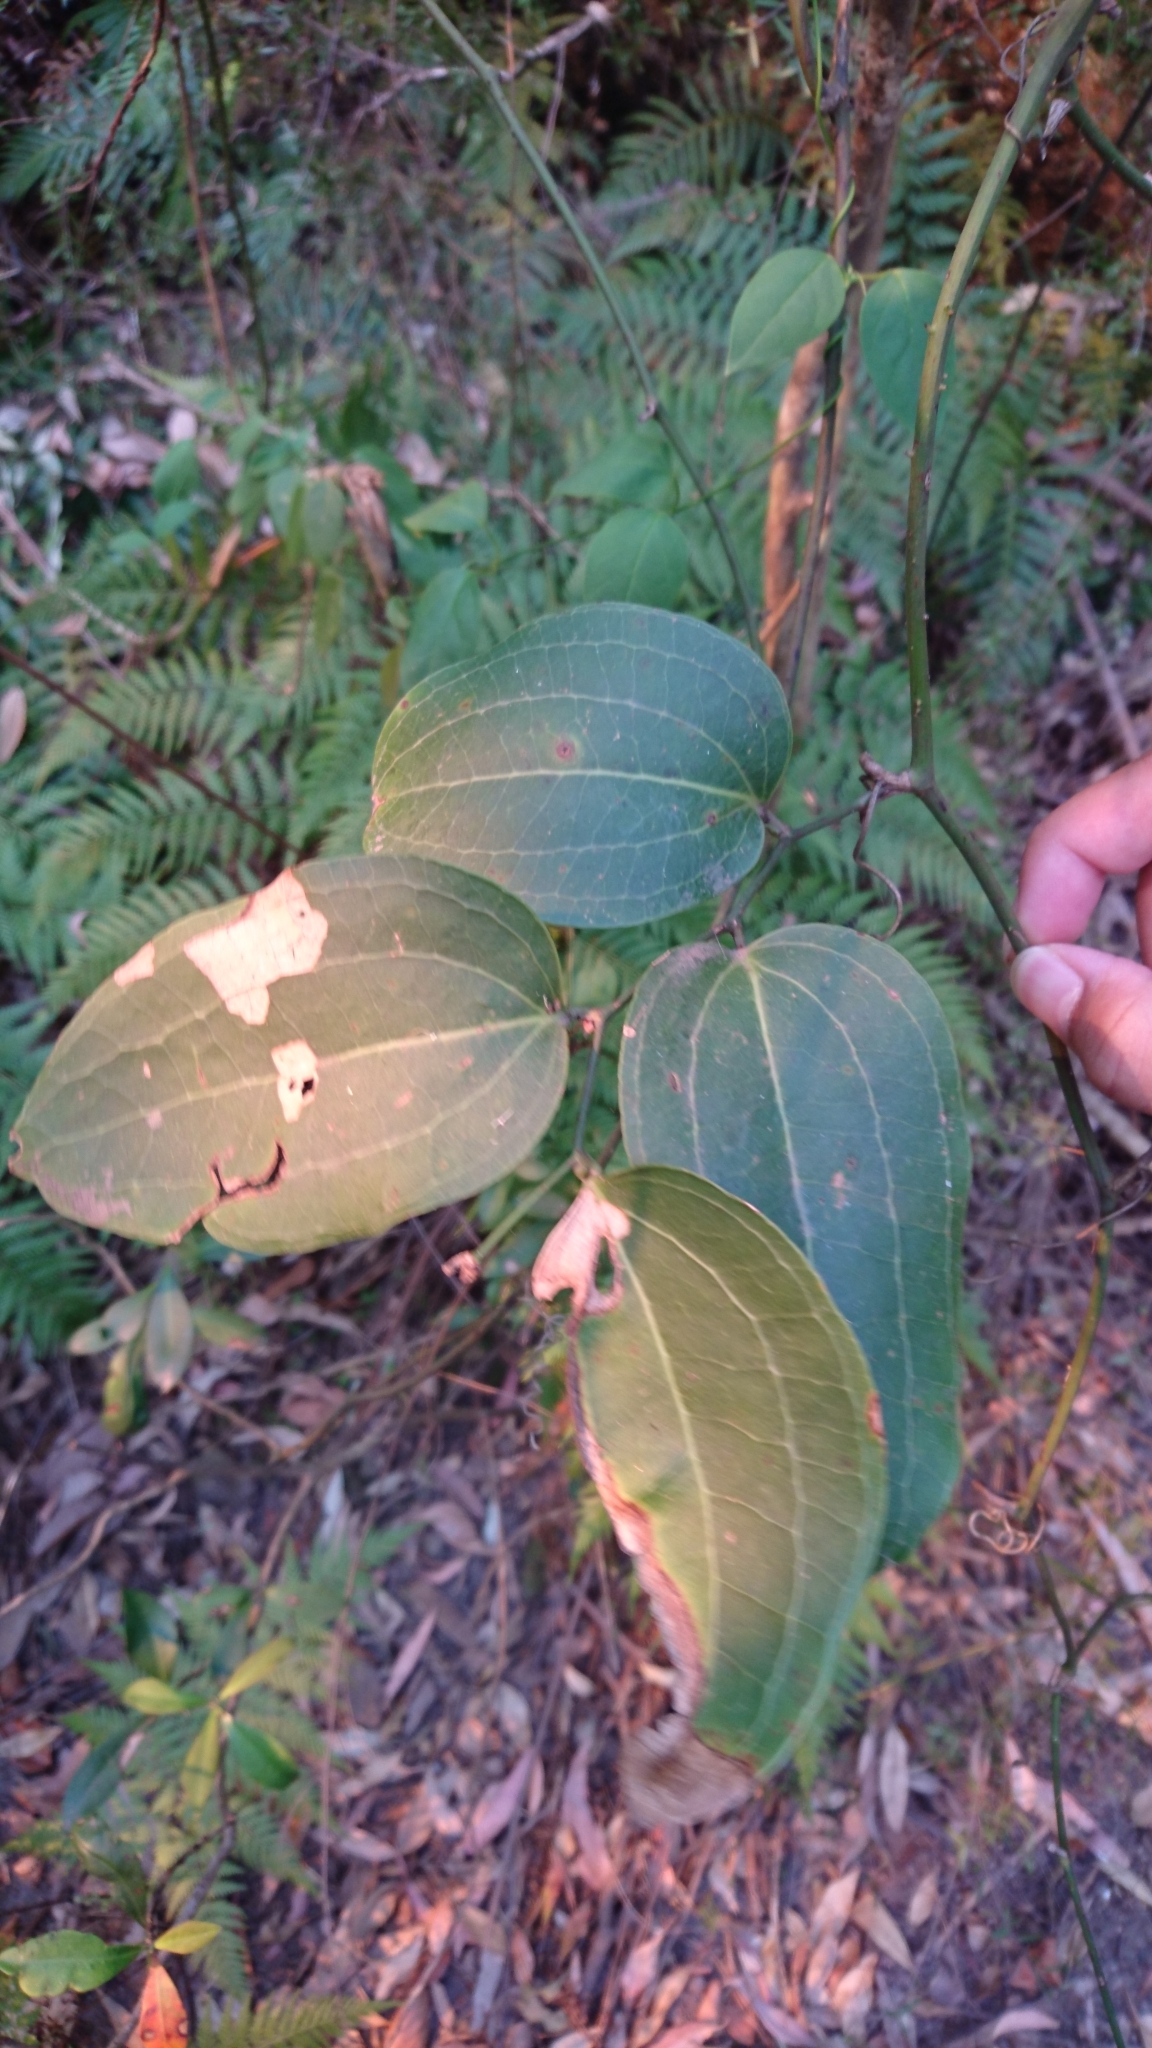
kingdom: Plantae
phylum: Tracheophyta
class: Liliopsida
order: Liliales
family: Smilacaceae
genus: Smilax
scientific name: Smilax australis
